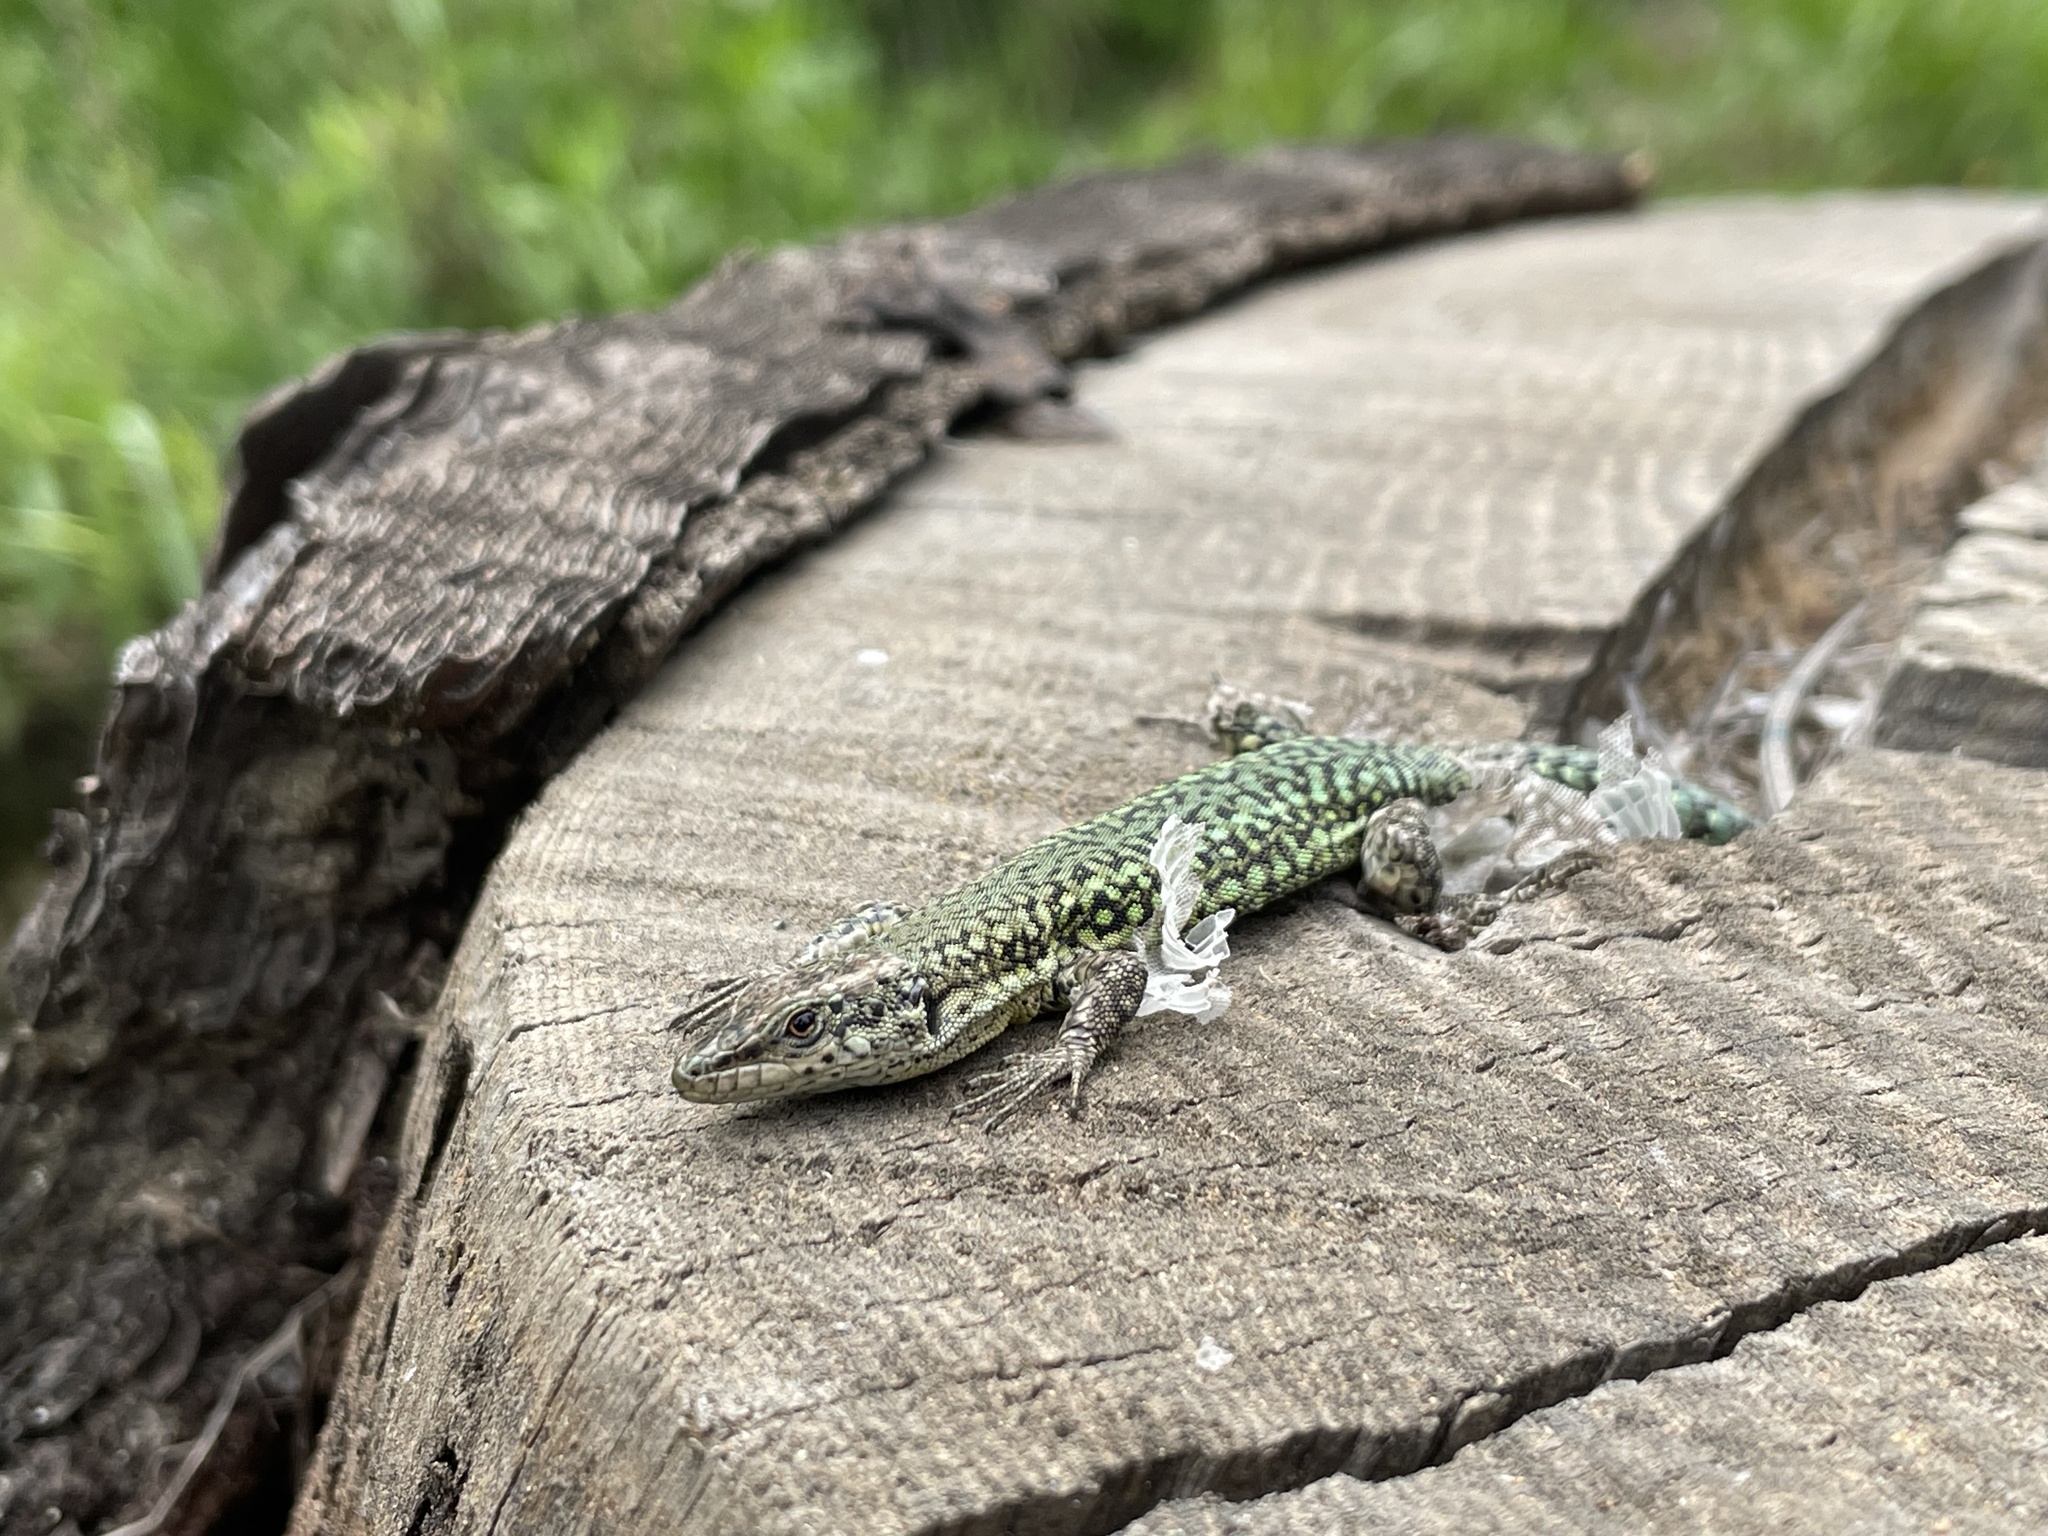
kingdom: Animalia
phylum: Chordata
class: Squamata
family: Lacertidae
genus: Podarcis
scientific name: Podarcis vaucheri
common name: Vaucher's wall lizard
